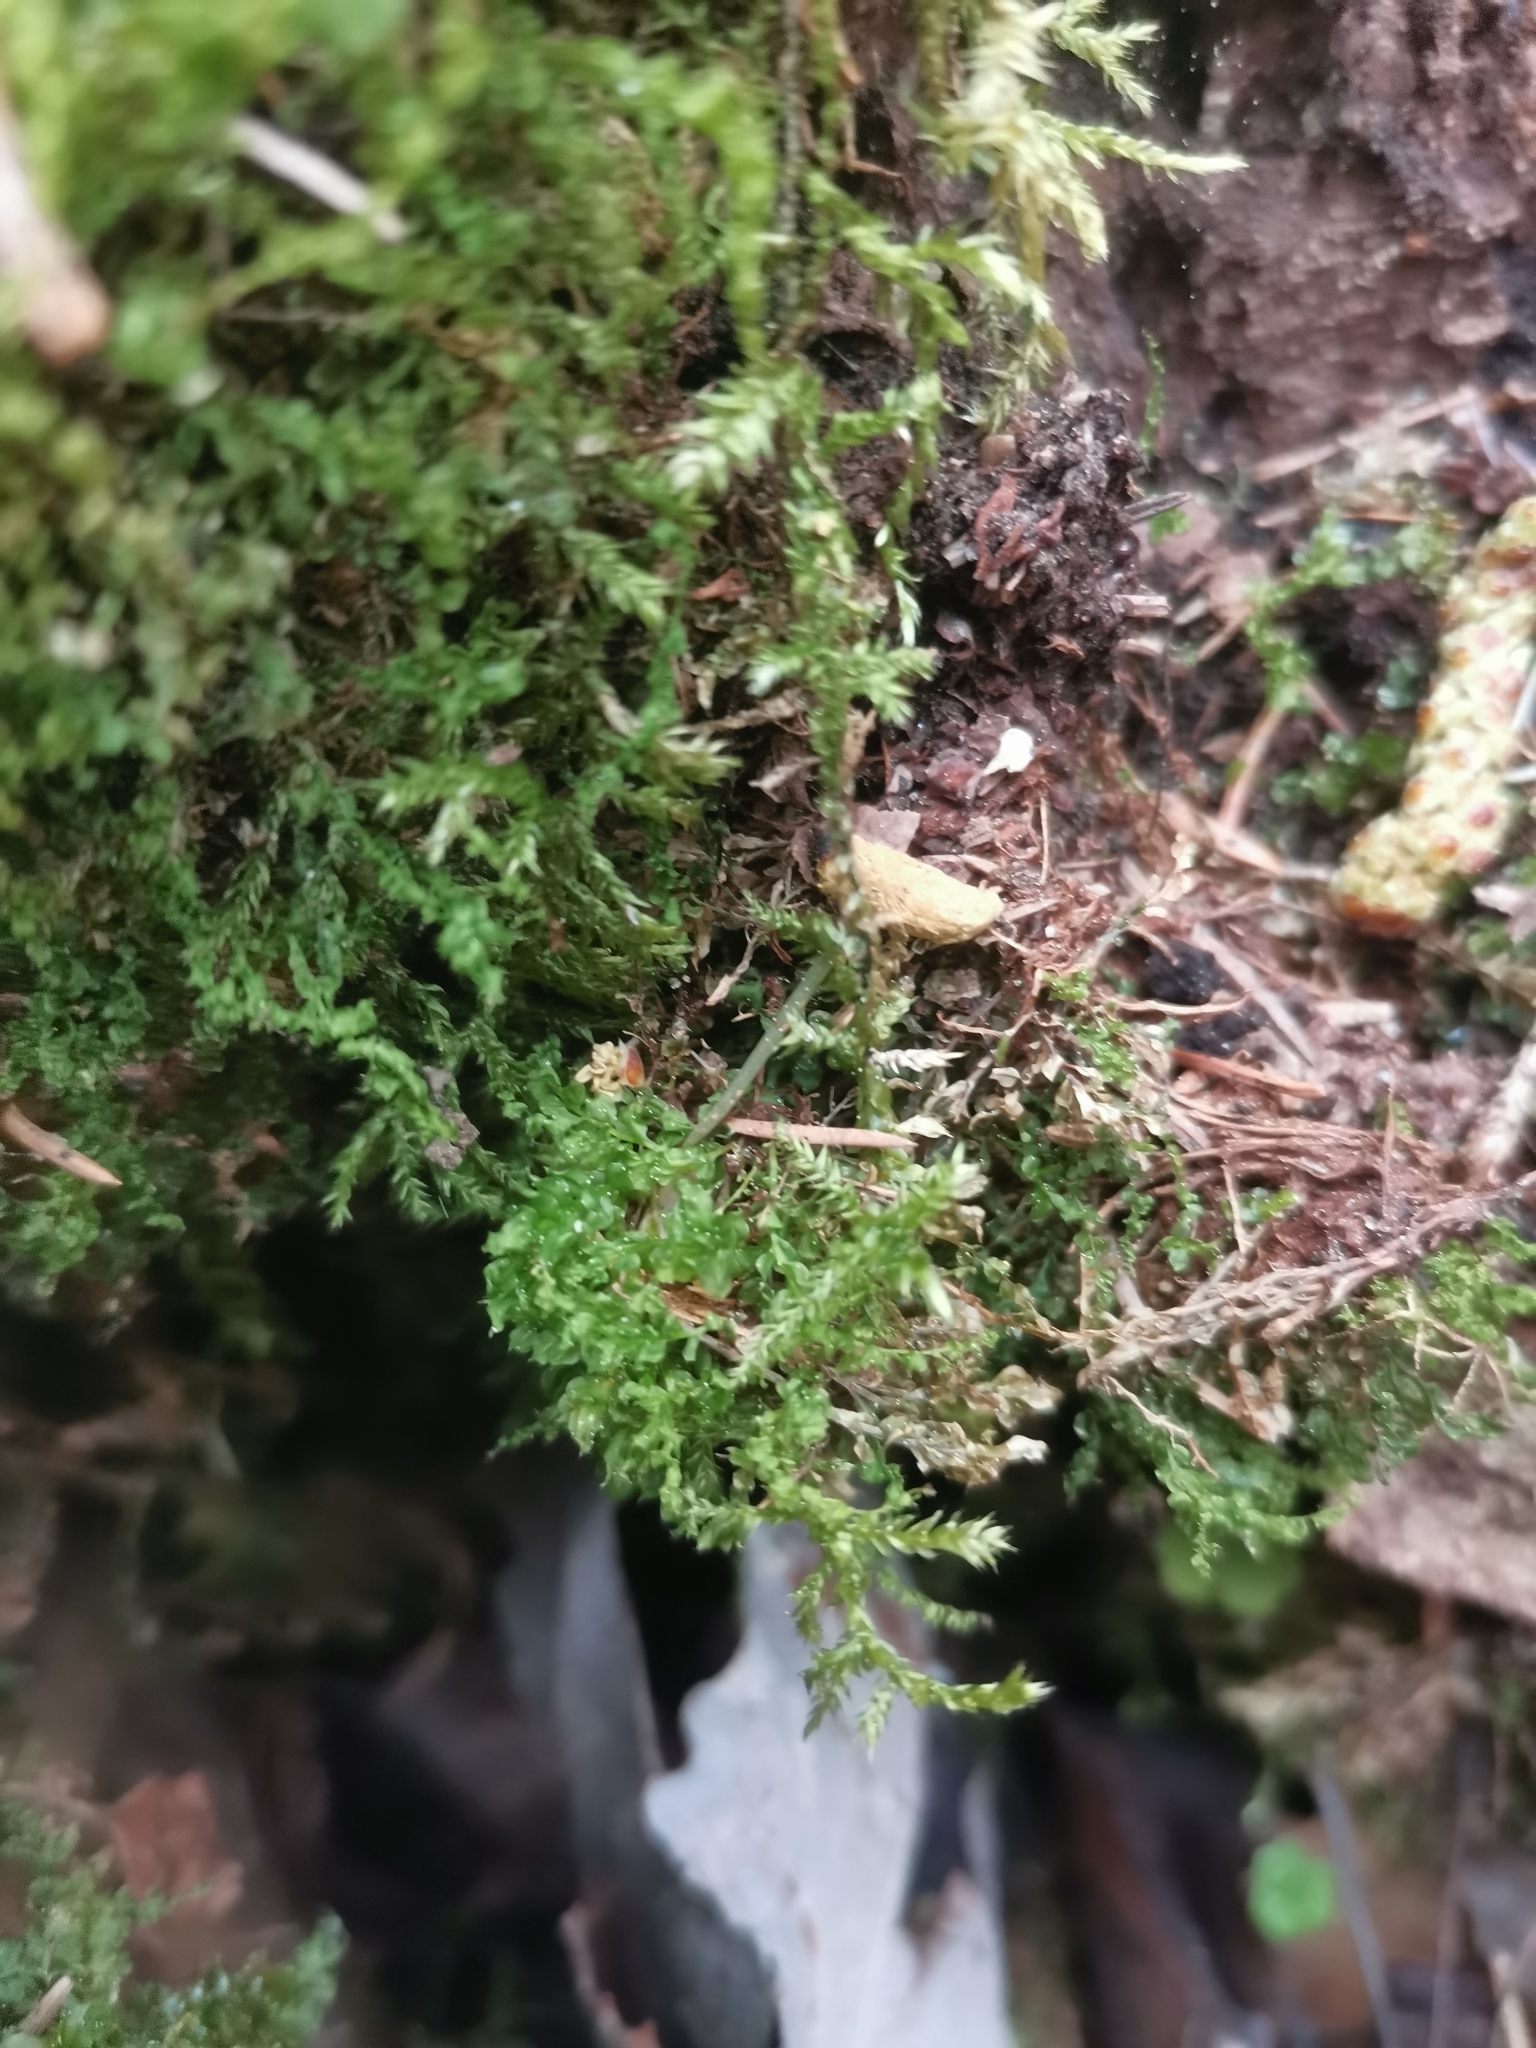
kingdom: Animalia
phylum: Chordata
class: Mammalia
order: Rodentia
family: Sciuridae
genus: Pteromys
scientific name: Pteromys volans
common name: Siberian flying squirrel
